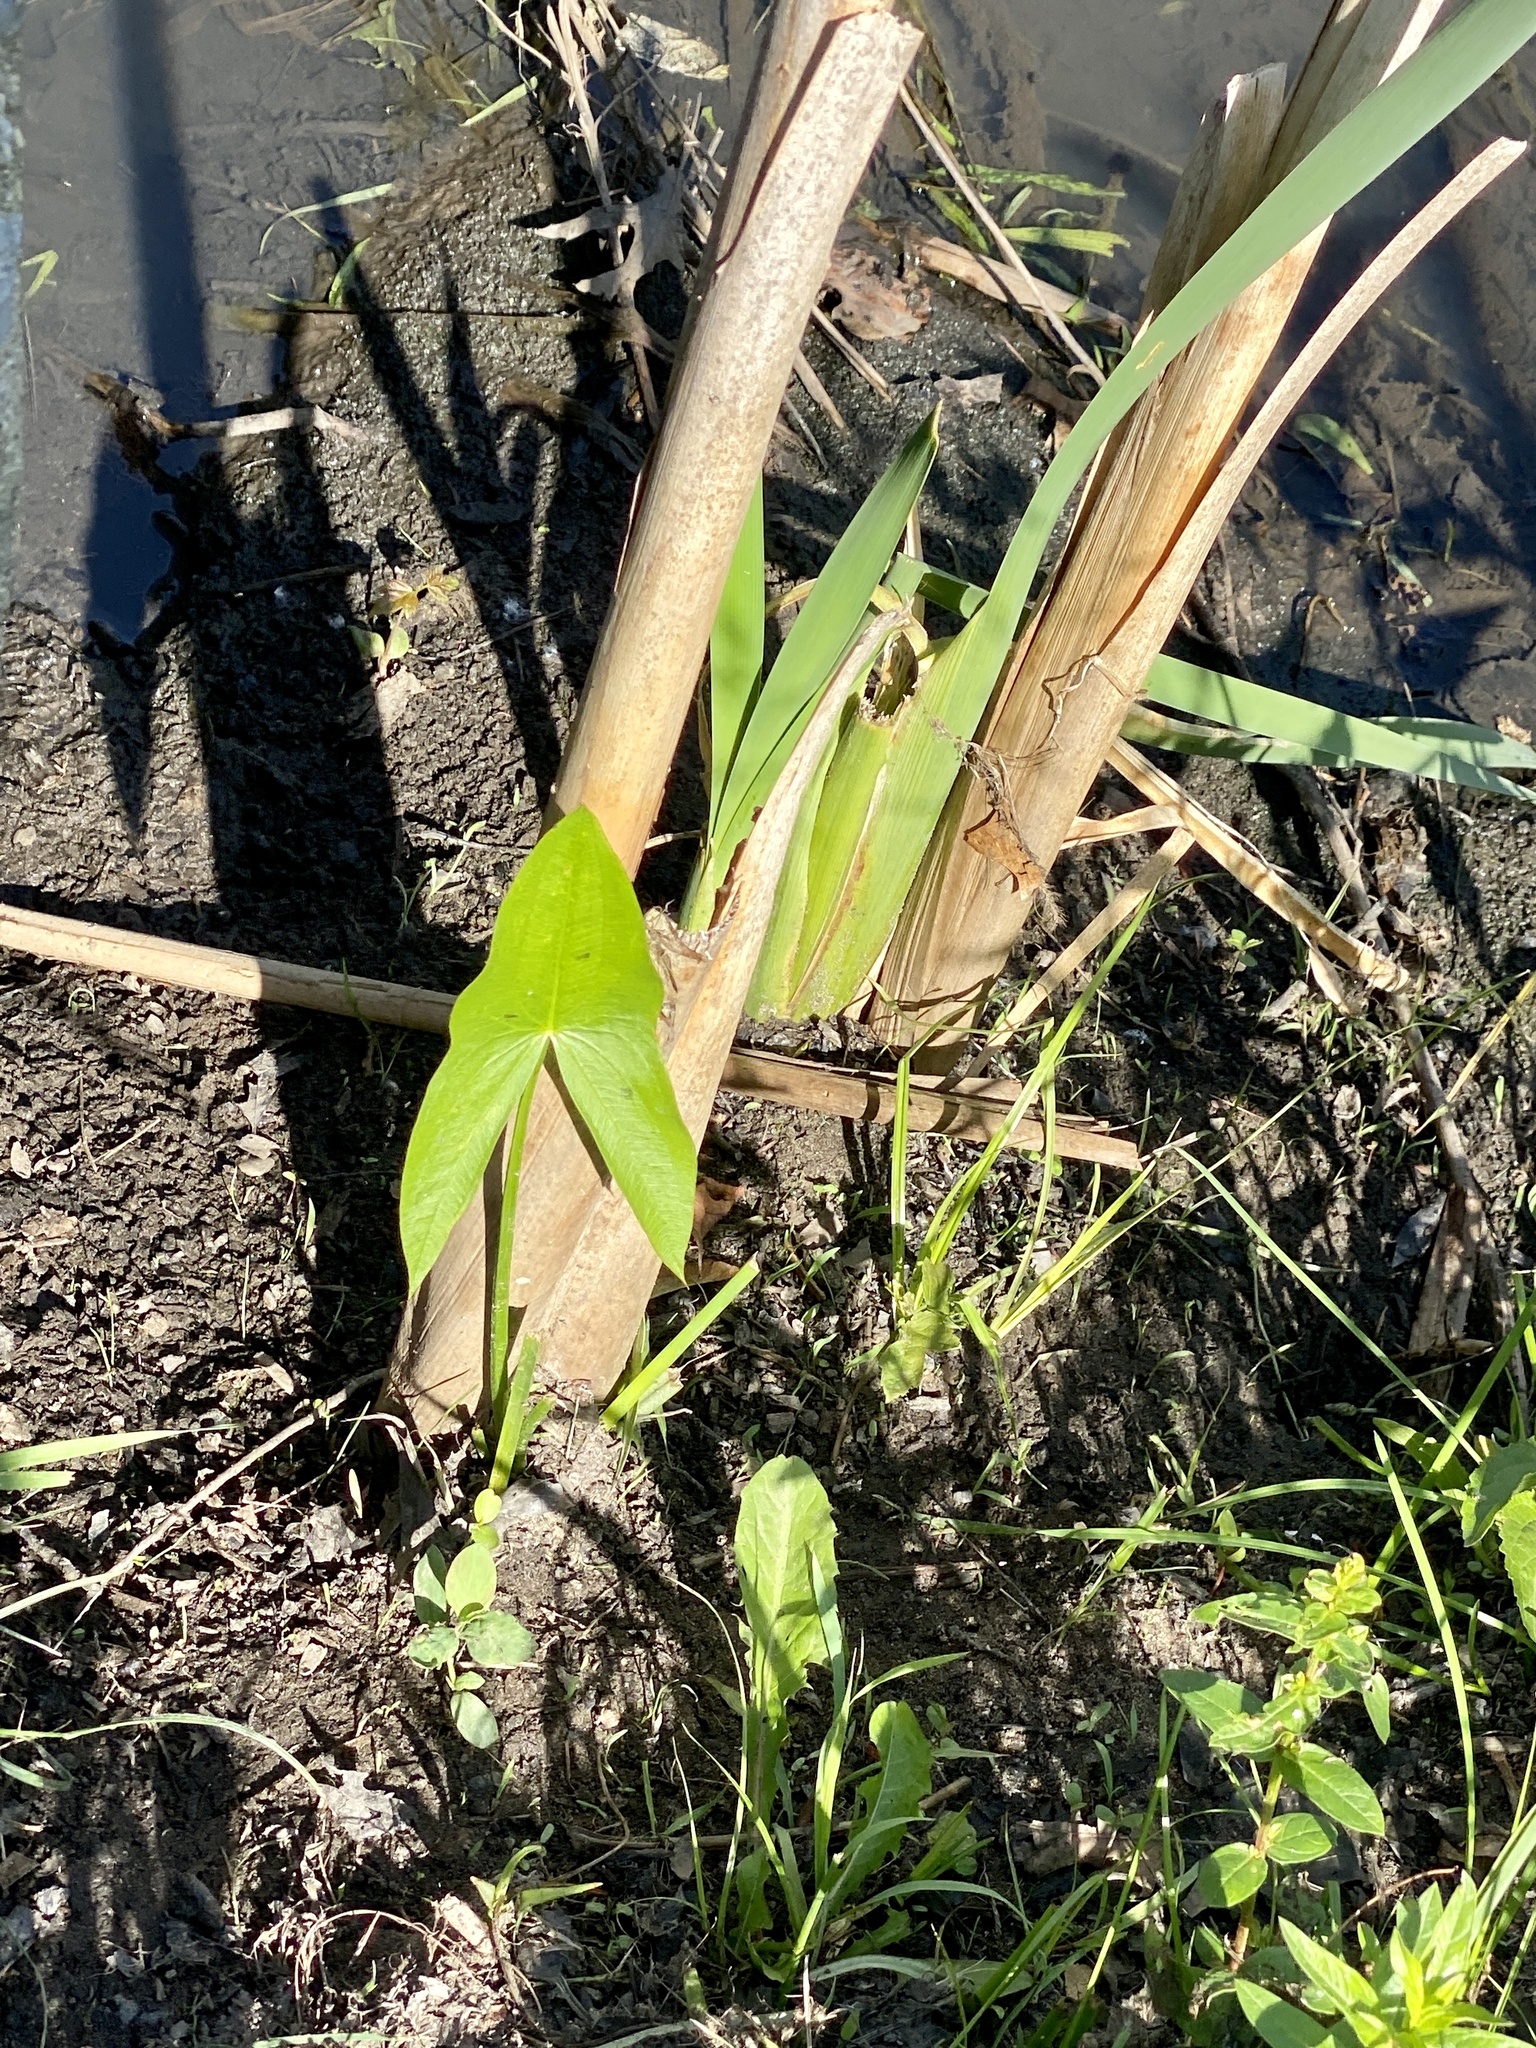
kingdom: Plantae
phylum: Tracheophyta
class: Liliopsida
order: Alismatales
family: Alismataceae
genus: Sagittaria
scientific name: Sagittaria latifolia
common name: Duck-potato
